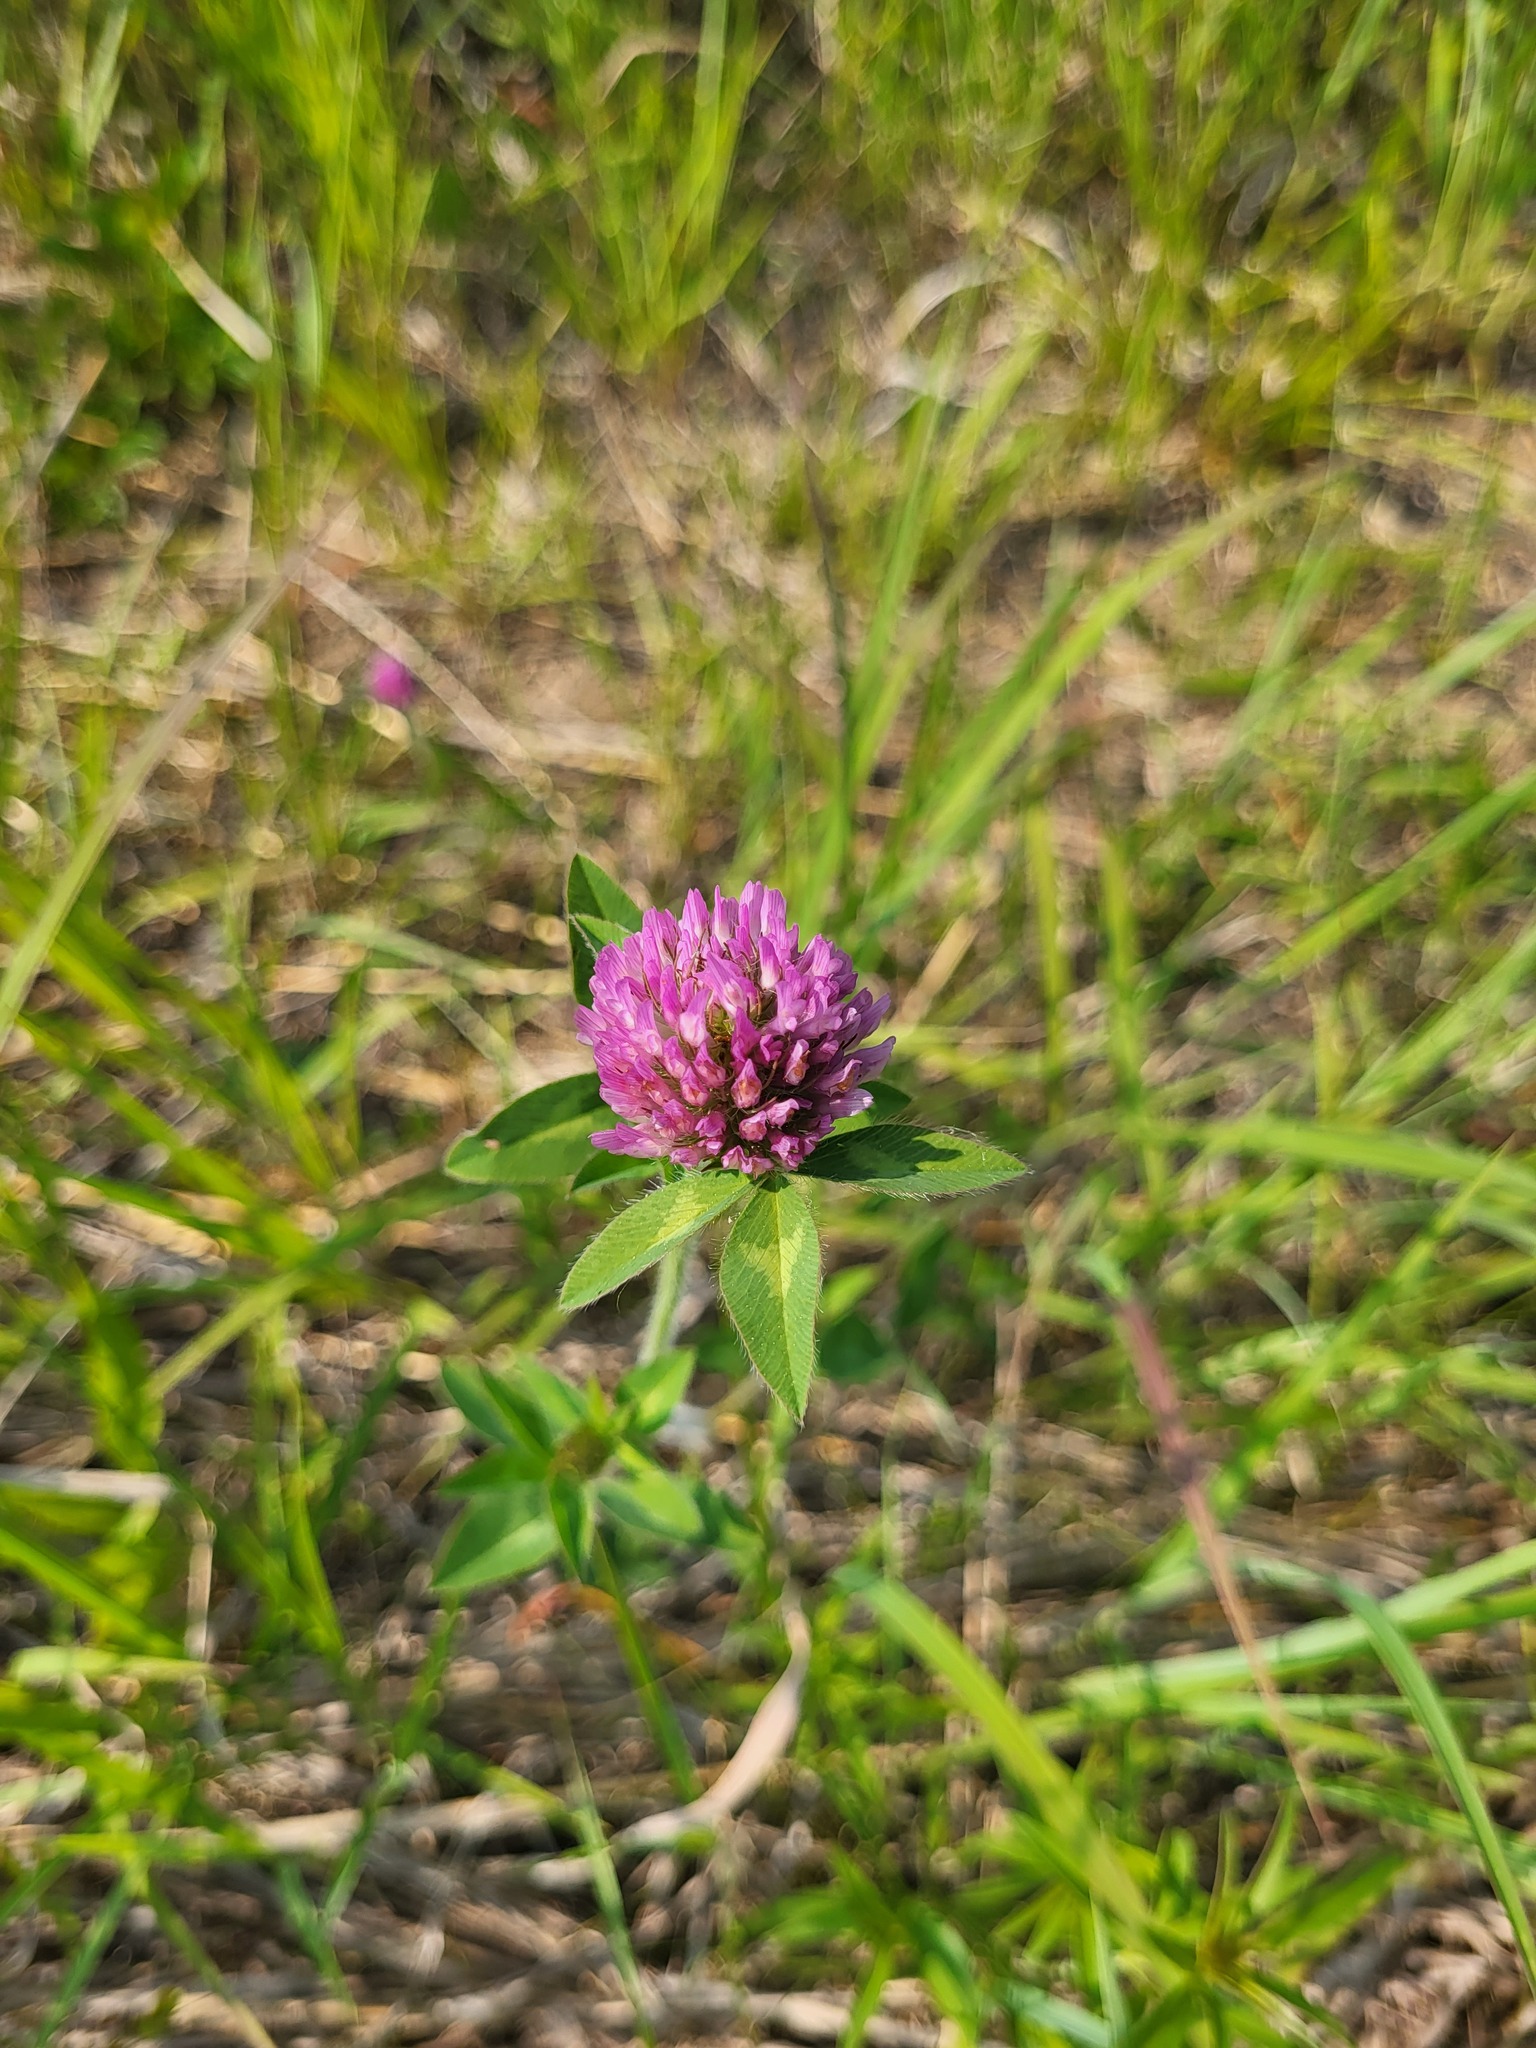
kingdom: Plantae
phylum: Tracheophyta
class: Magnoliopsida
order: Fabales
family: Fabaceae
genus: Trifolium
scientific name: Trifolium pratense
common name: Red clover
